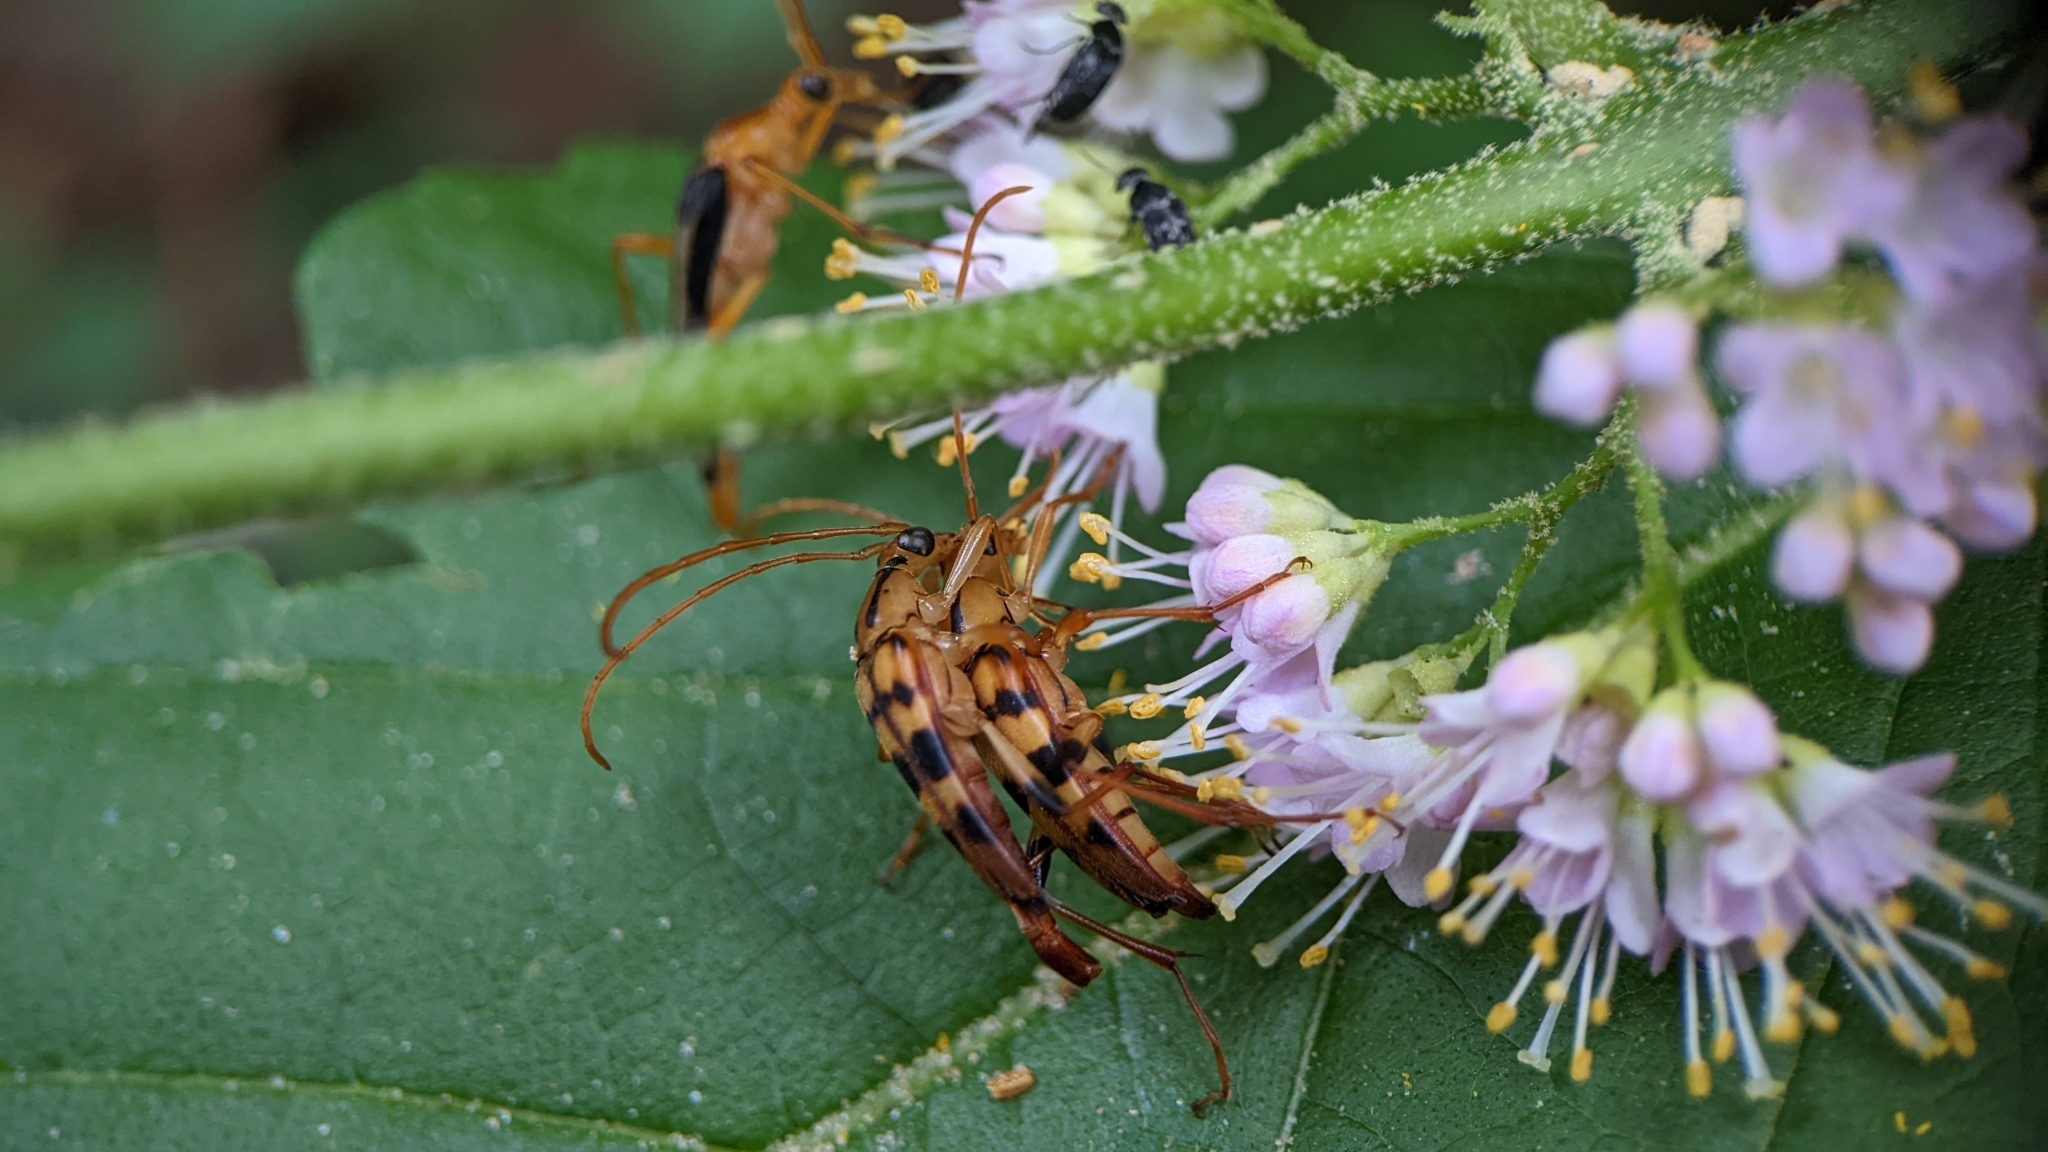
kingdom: Animalia
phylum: Arthropoda
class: Insecta
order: Coleoptera
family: Cerambycidae
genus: Strangalia
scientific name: Strangalia luteicornis
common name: Yellow-horned flower longhorn beetle
